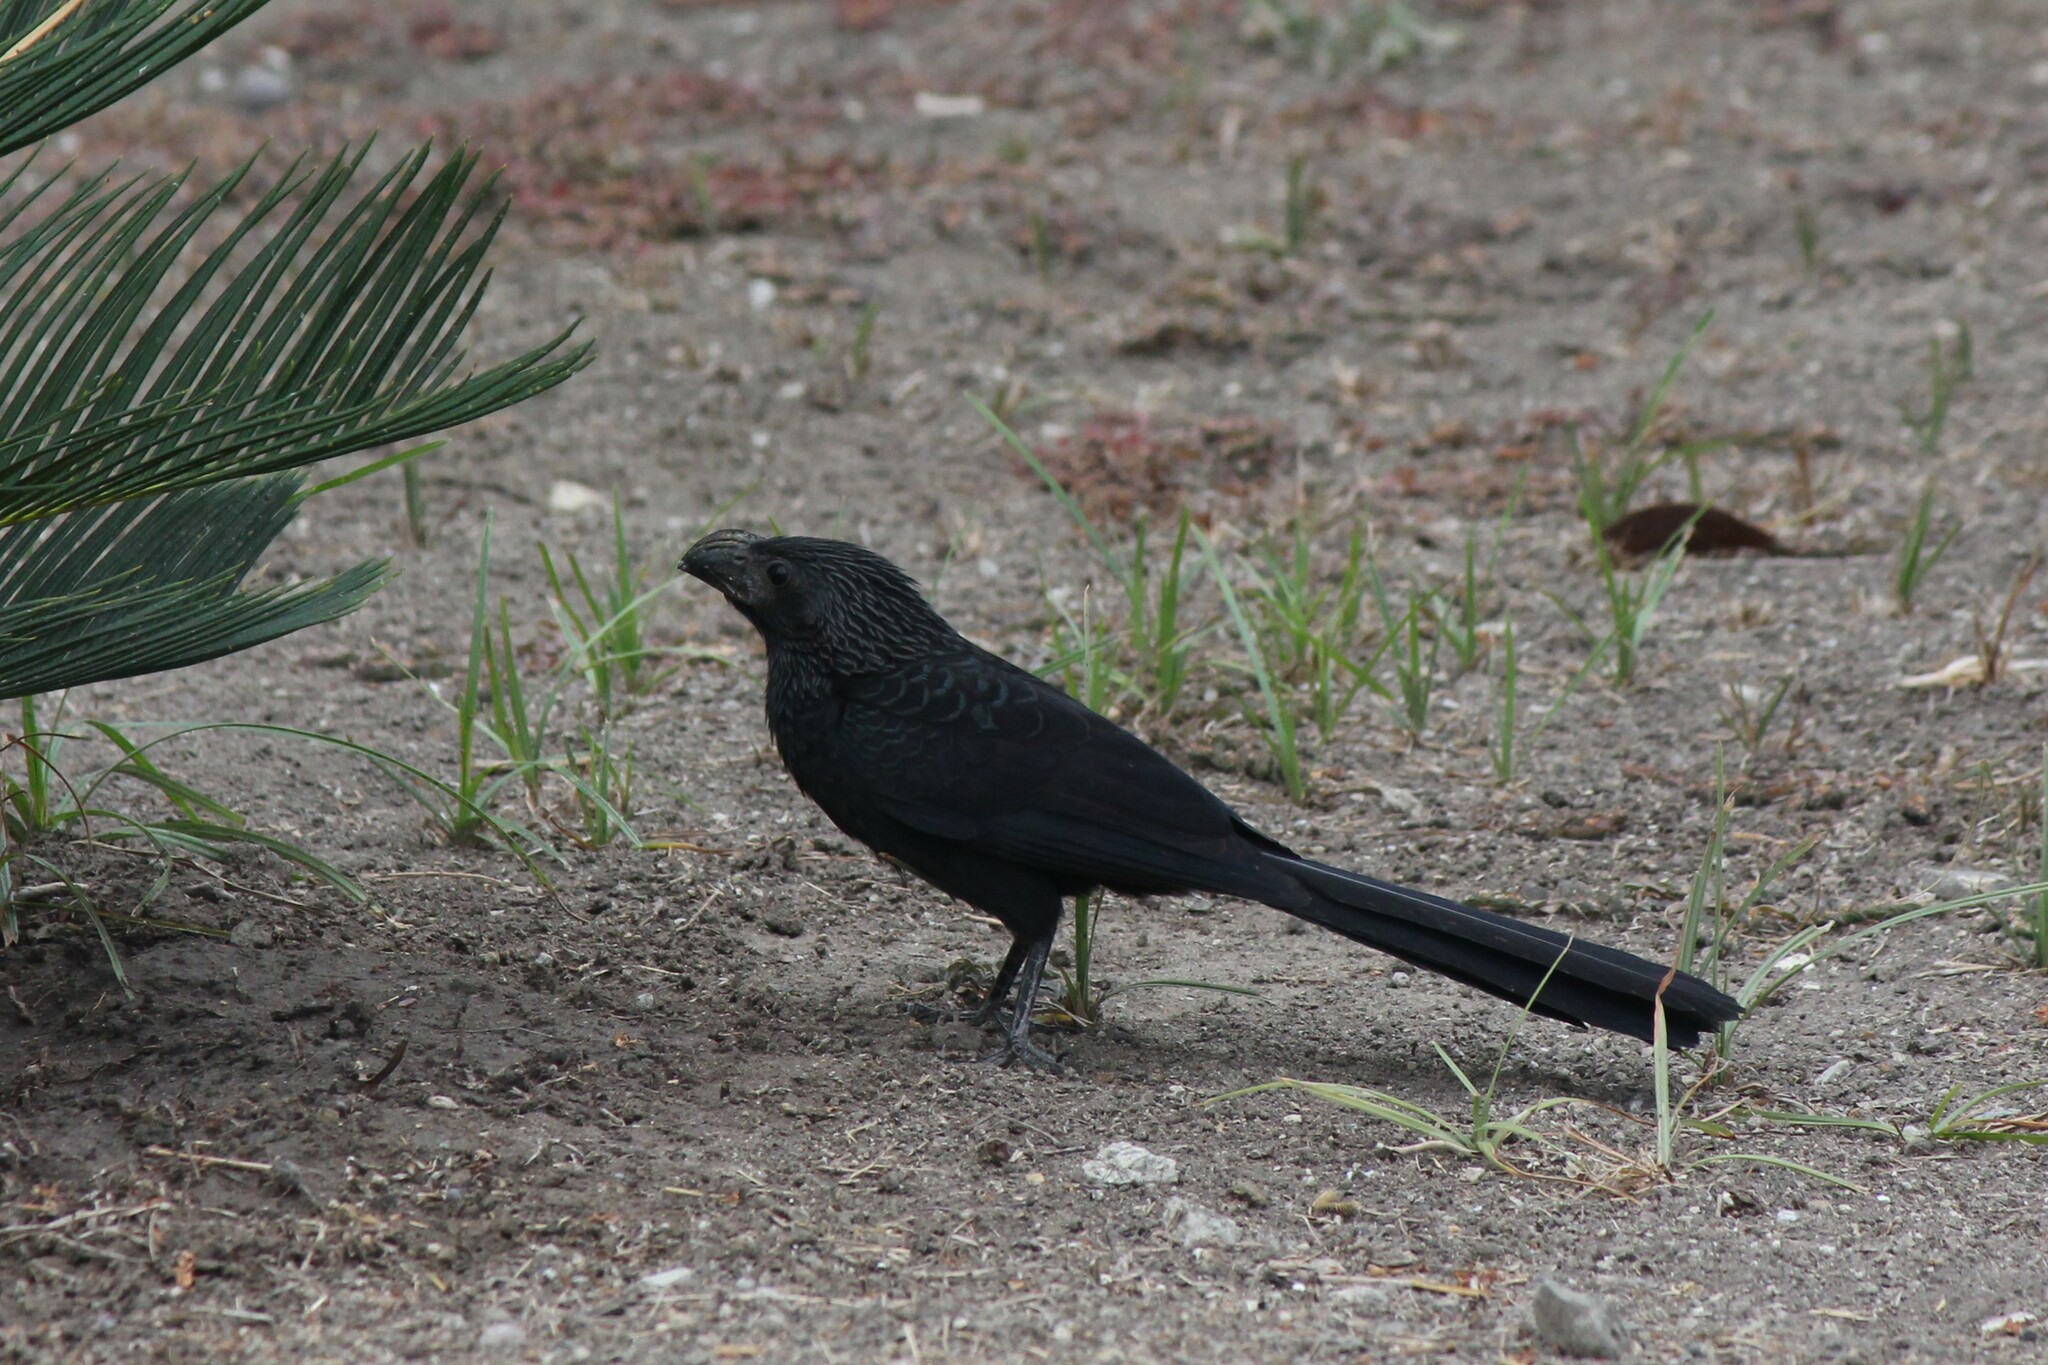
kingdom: Animalia
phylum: Chordata
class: Aves
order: Cuculiformes
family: Cuculidae
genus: Crotophaga
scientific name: Crotophaga sulcirostris
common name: Groove-billed ani
